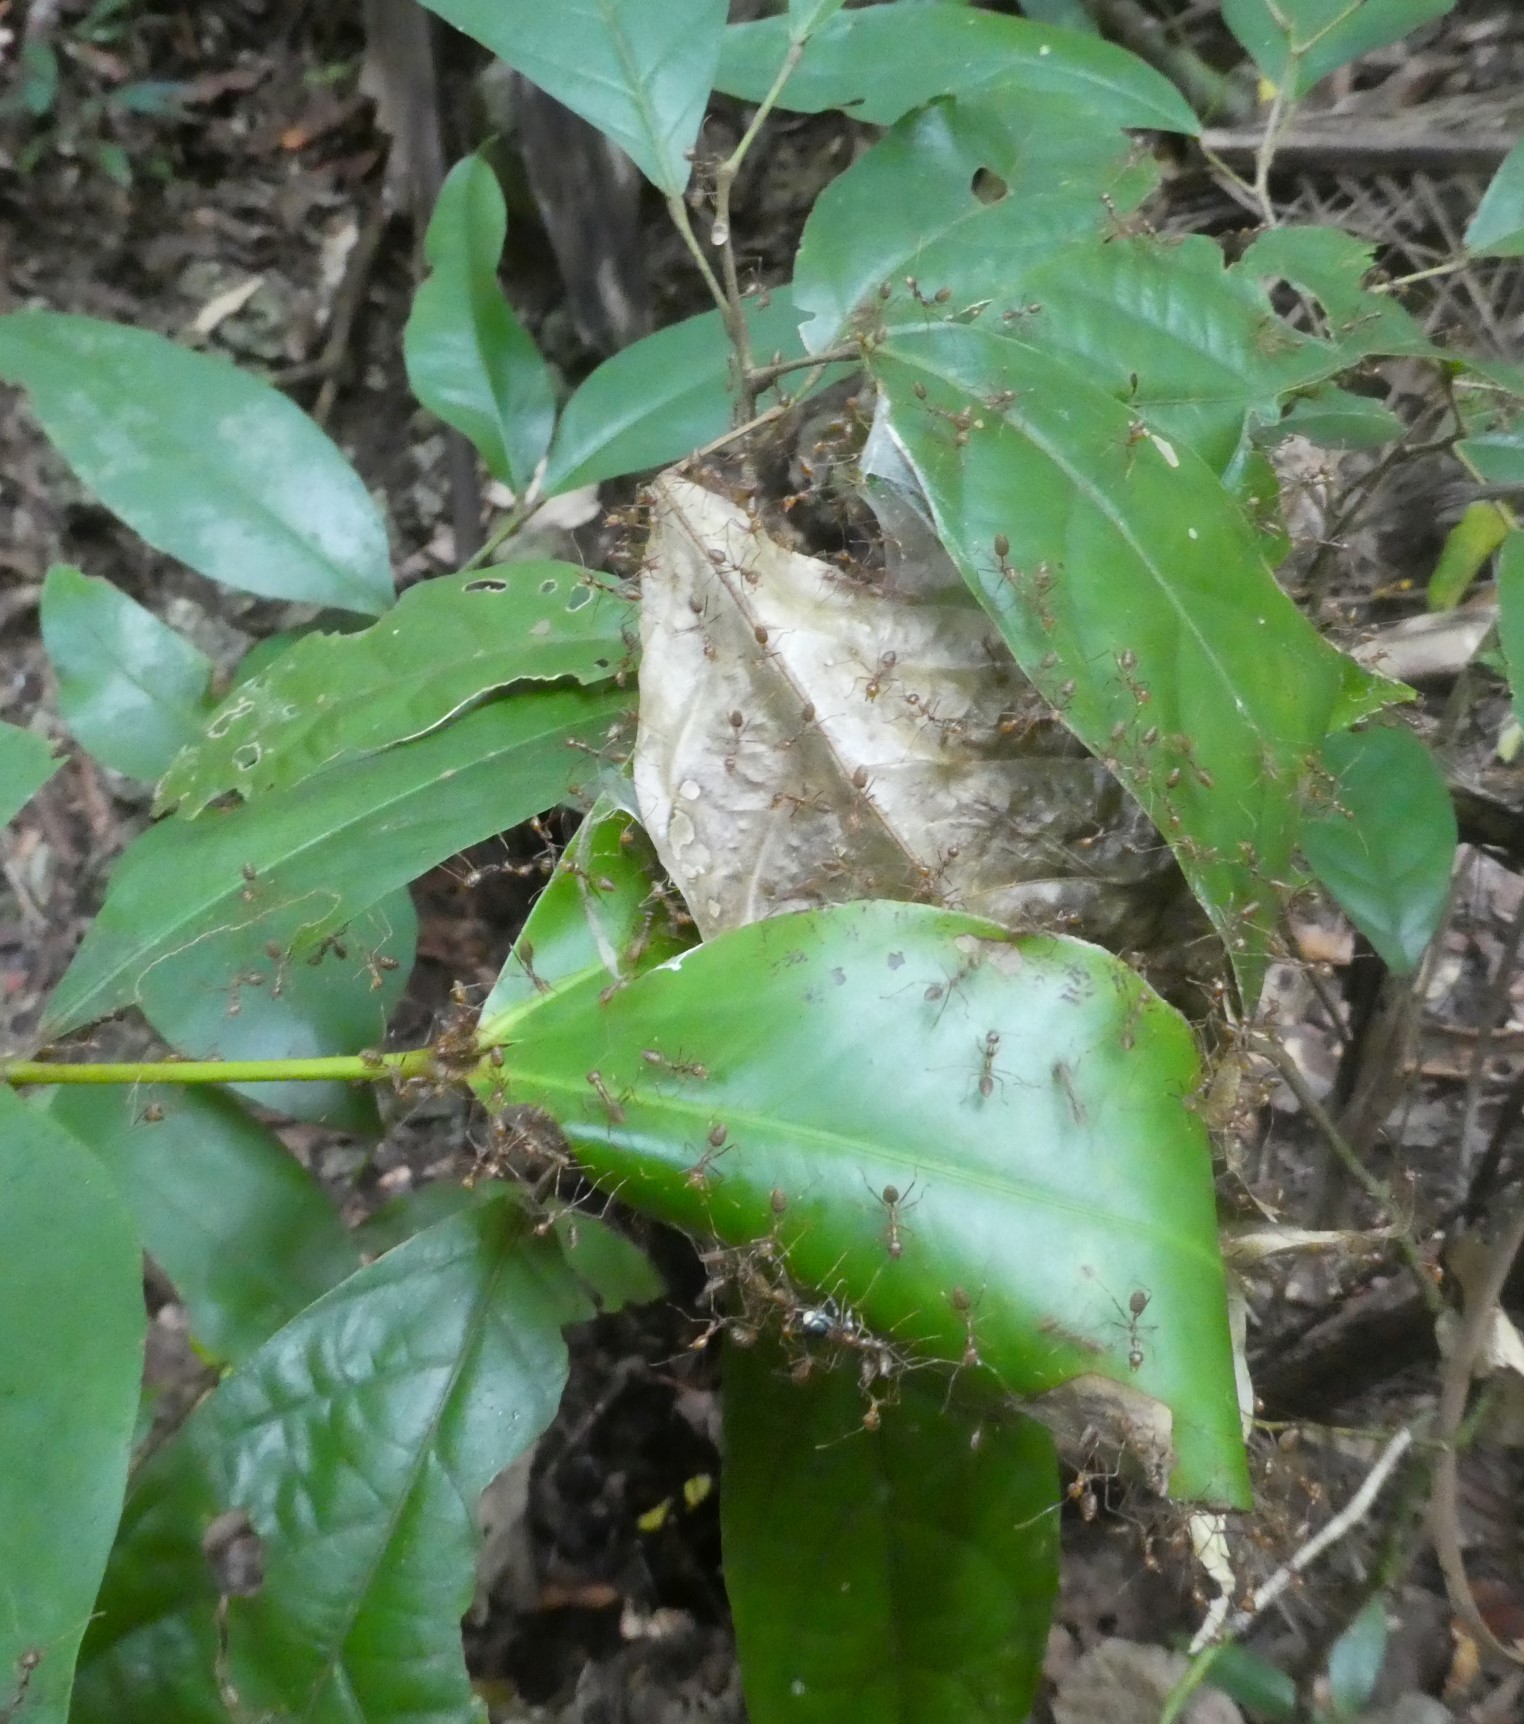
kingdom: Animalia
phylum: Arthropoda
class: Insecta
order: Hymenoptera
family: Formicidae
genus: Oecophylla
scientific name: Oecophylla smaragdina
